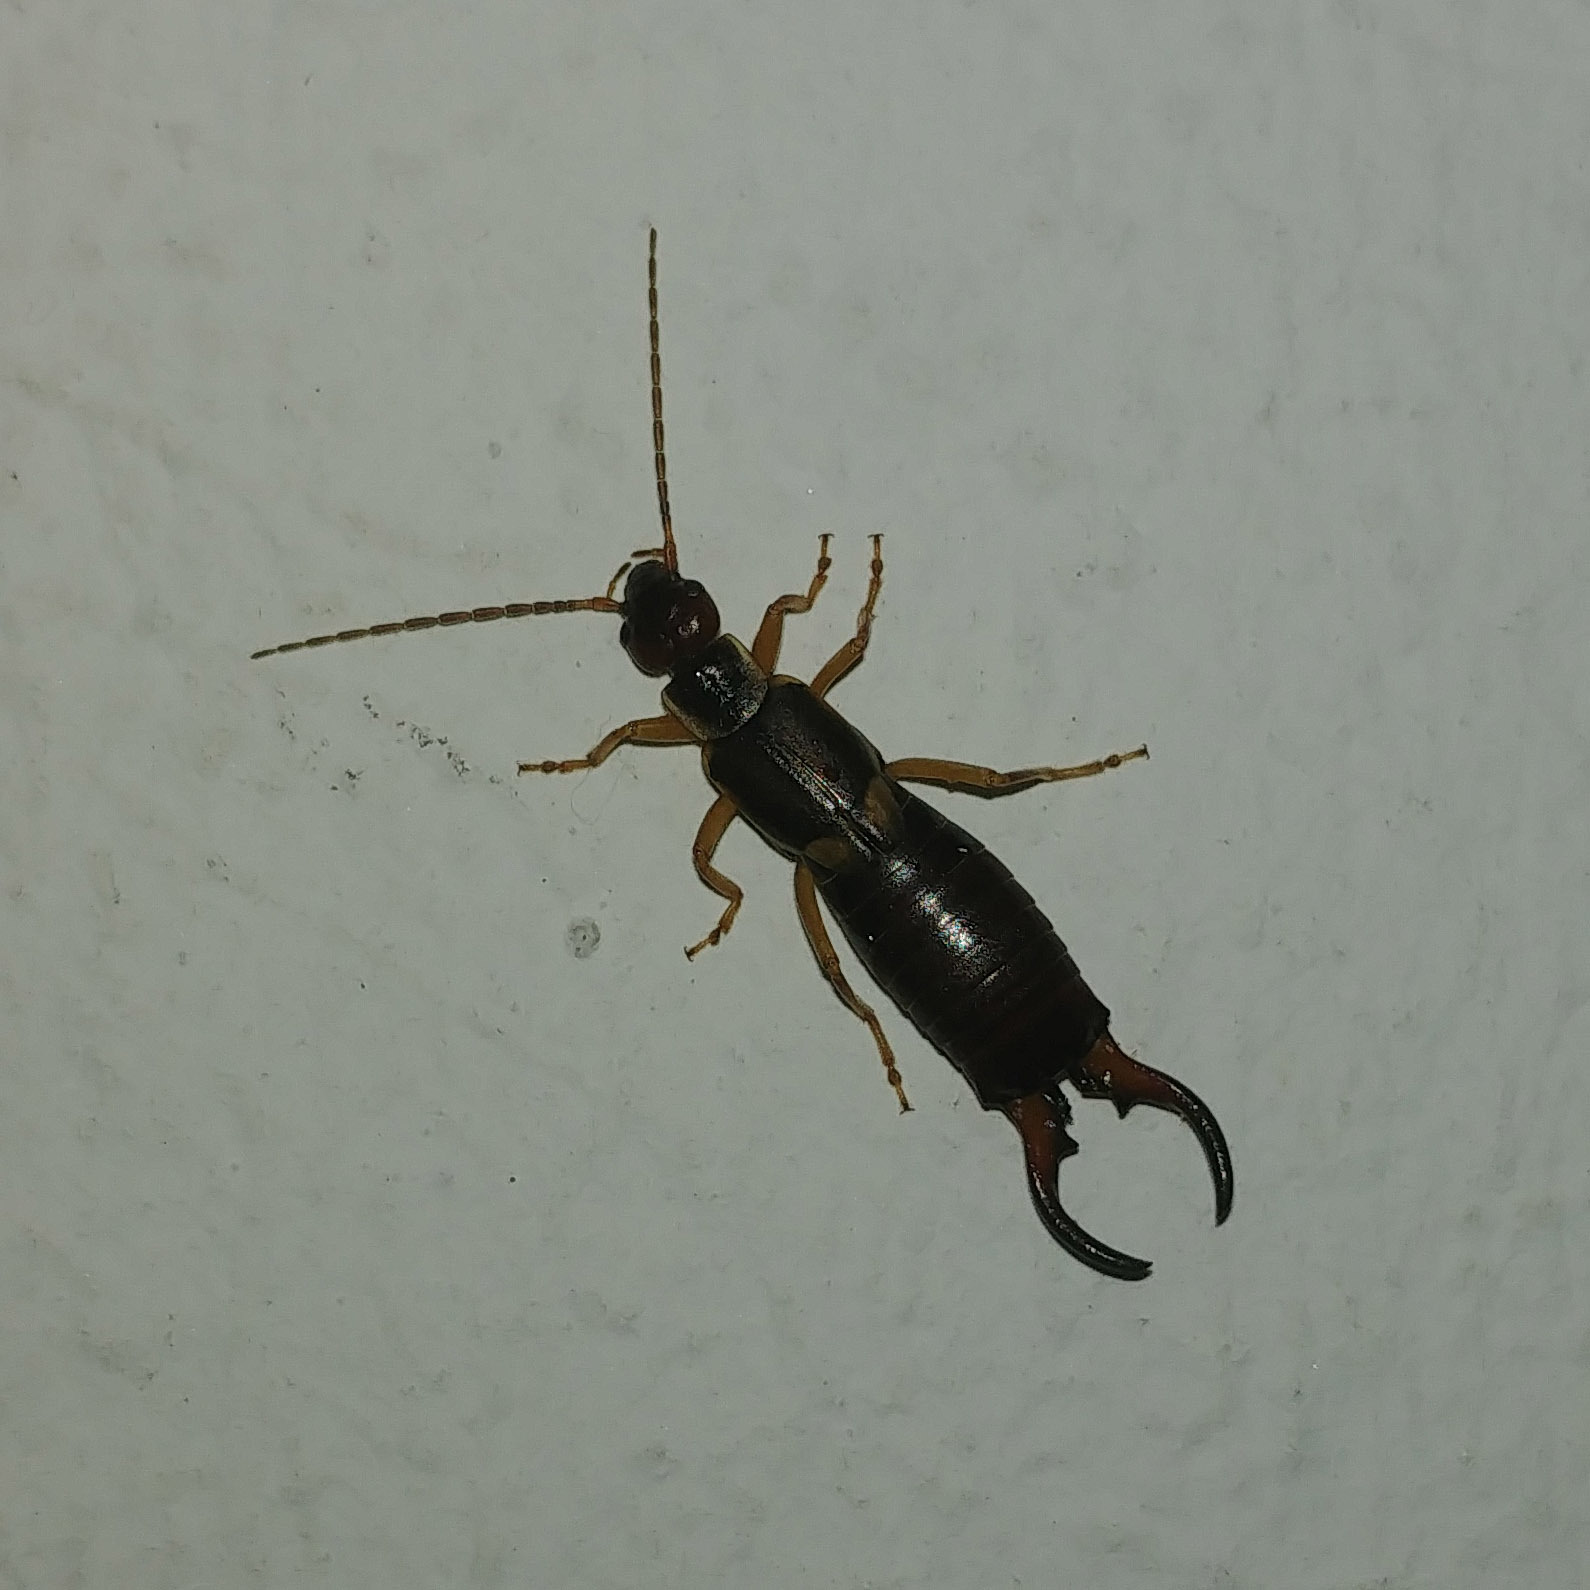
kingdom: Animalia
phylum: Arthropoda
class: Insecta
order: Dermaptera
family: Forficulidae
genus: Forficula
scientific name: Forficula
